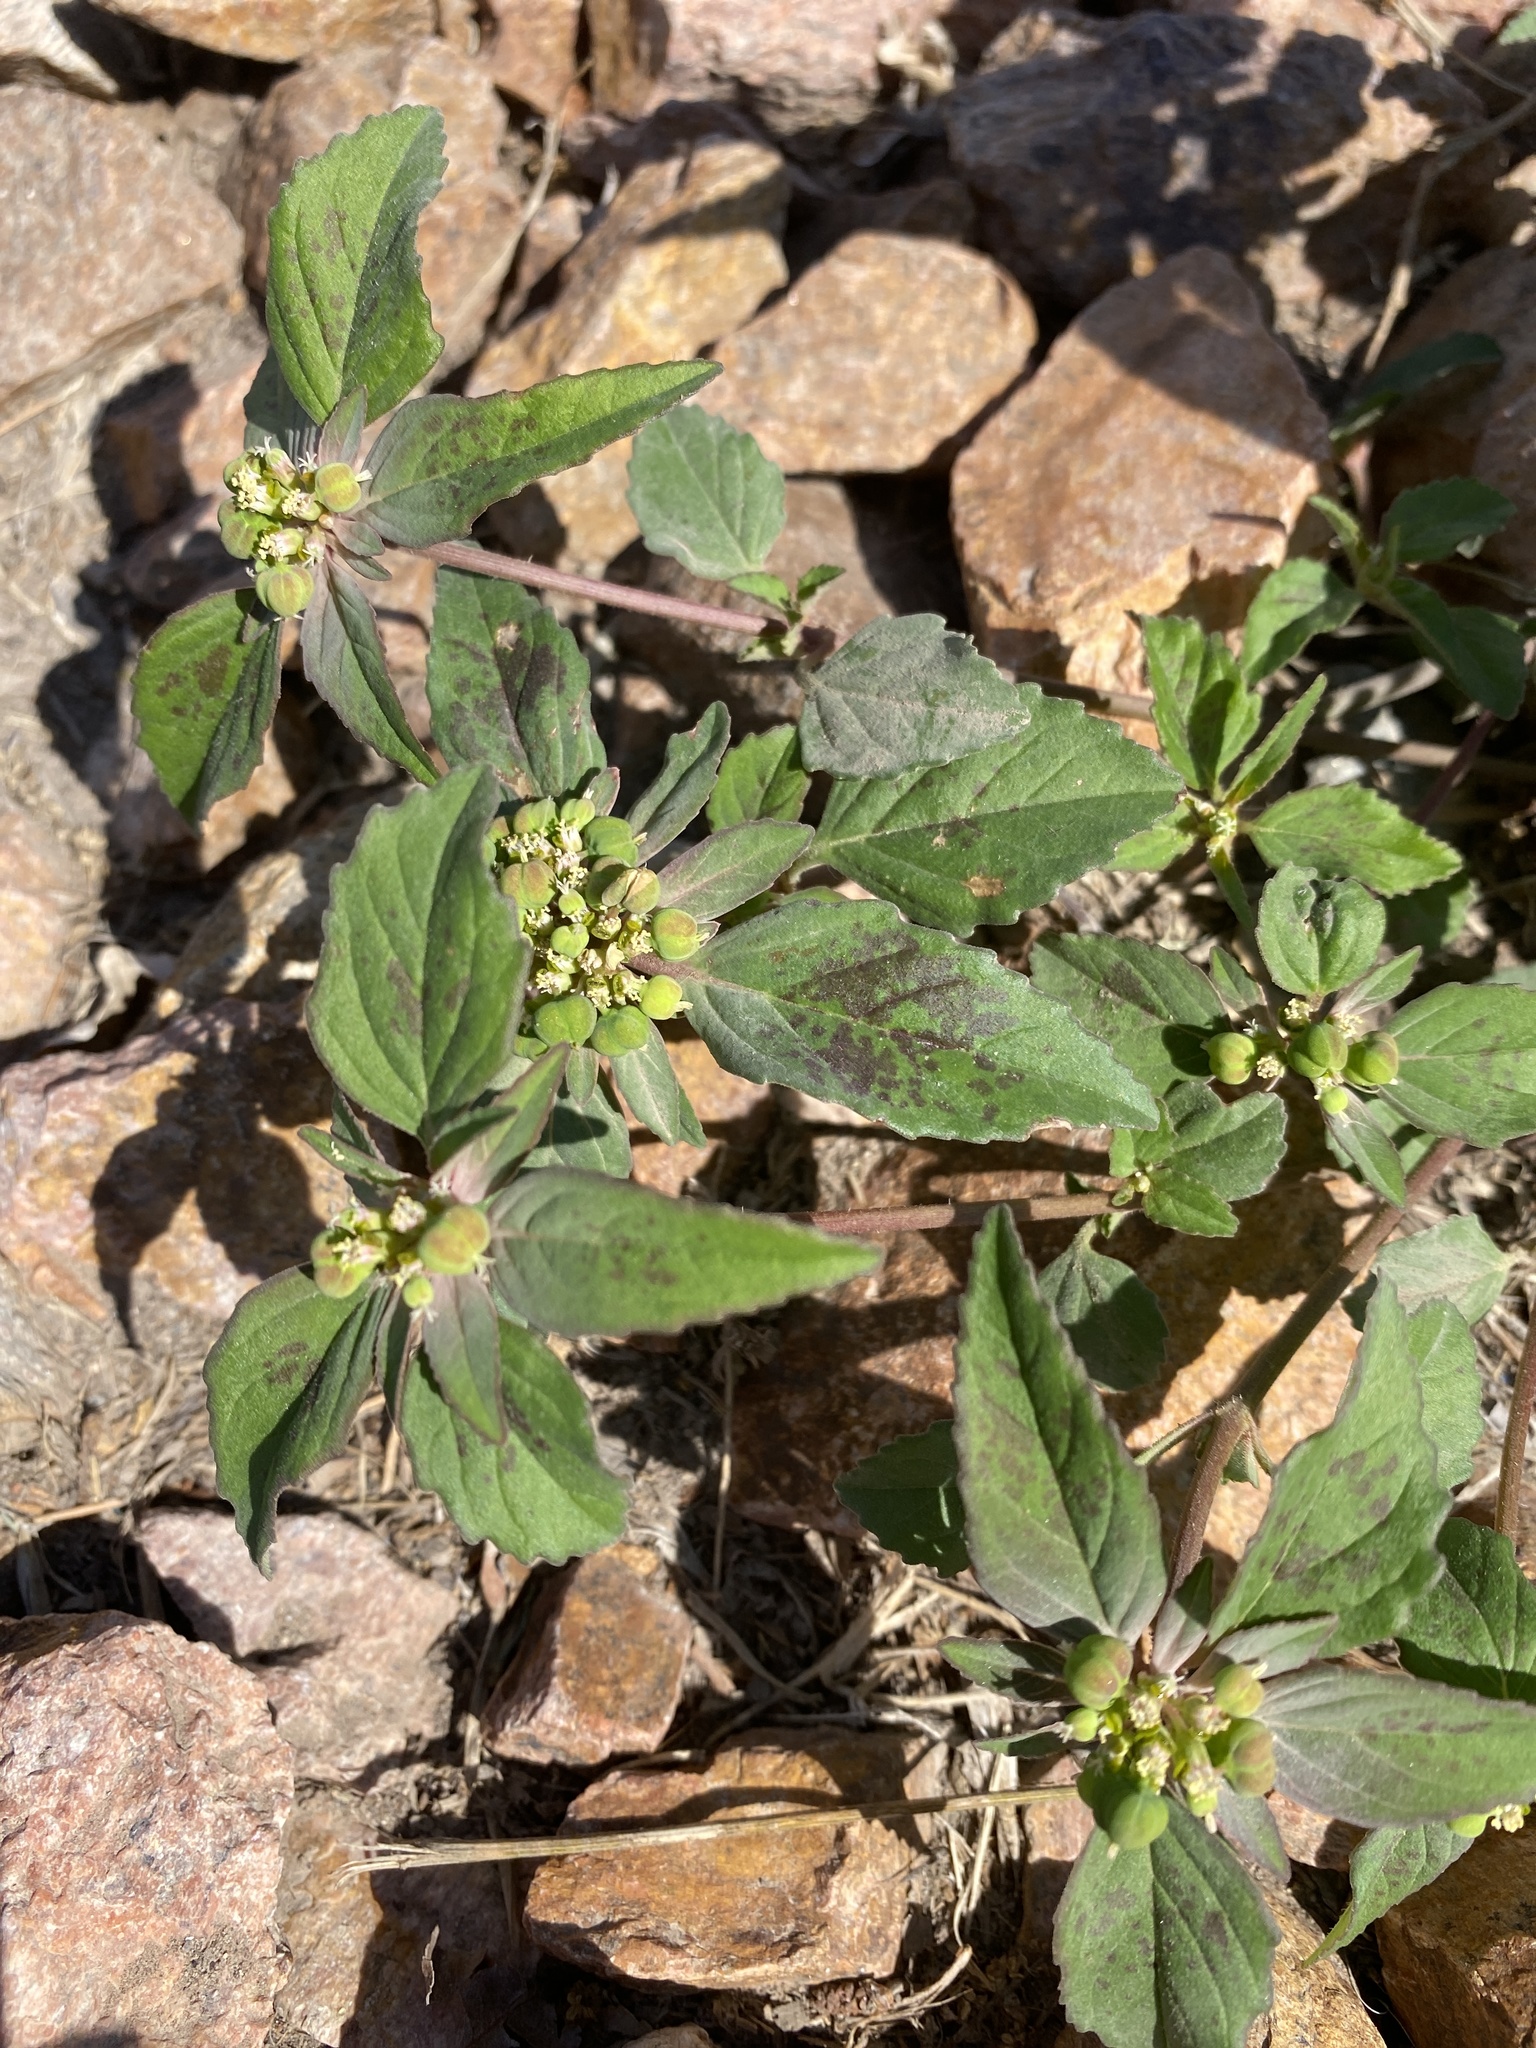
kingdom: Plantae
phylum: Tracheophyta
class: Magnoliopsida
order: Malpighiales
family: Euphorbiaceae
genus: Euphorbia
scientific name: Euphorbia davidii
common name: David's spurge
